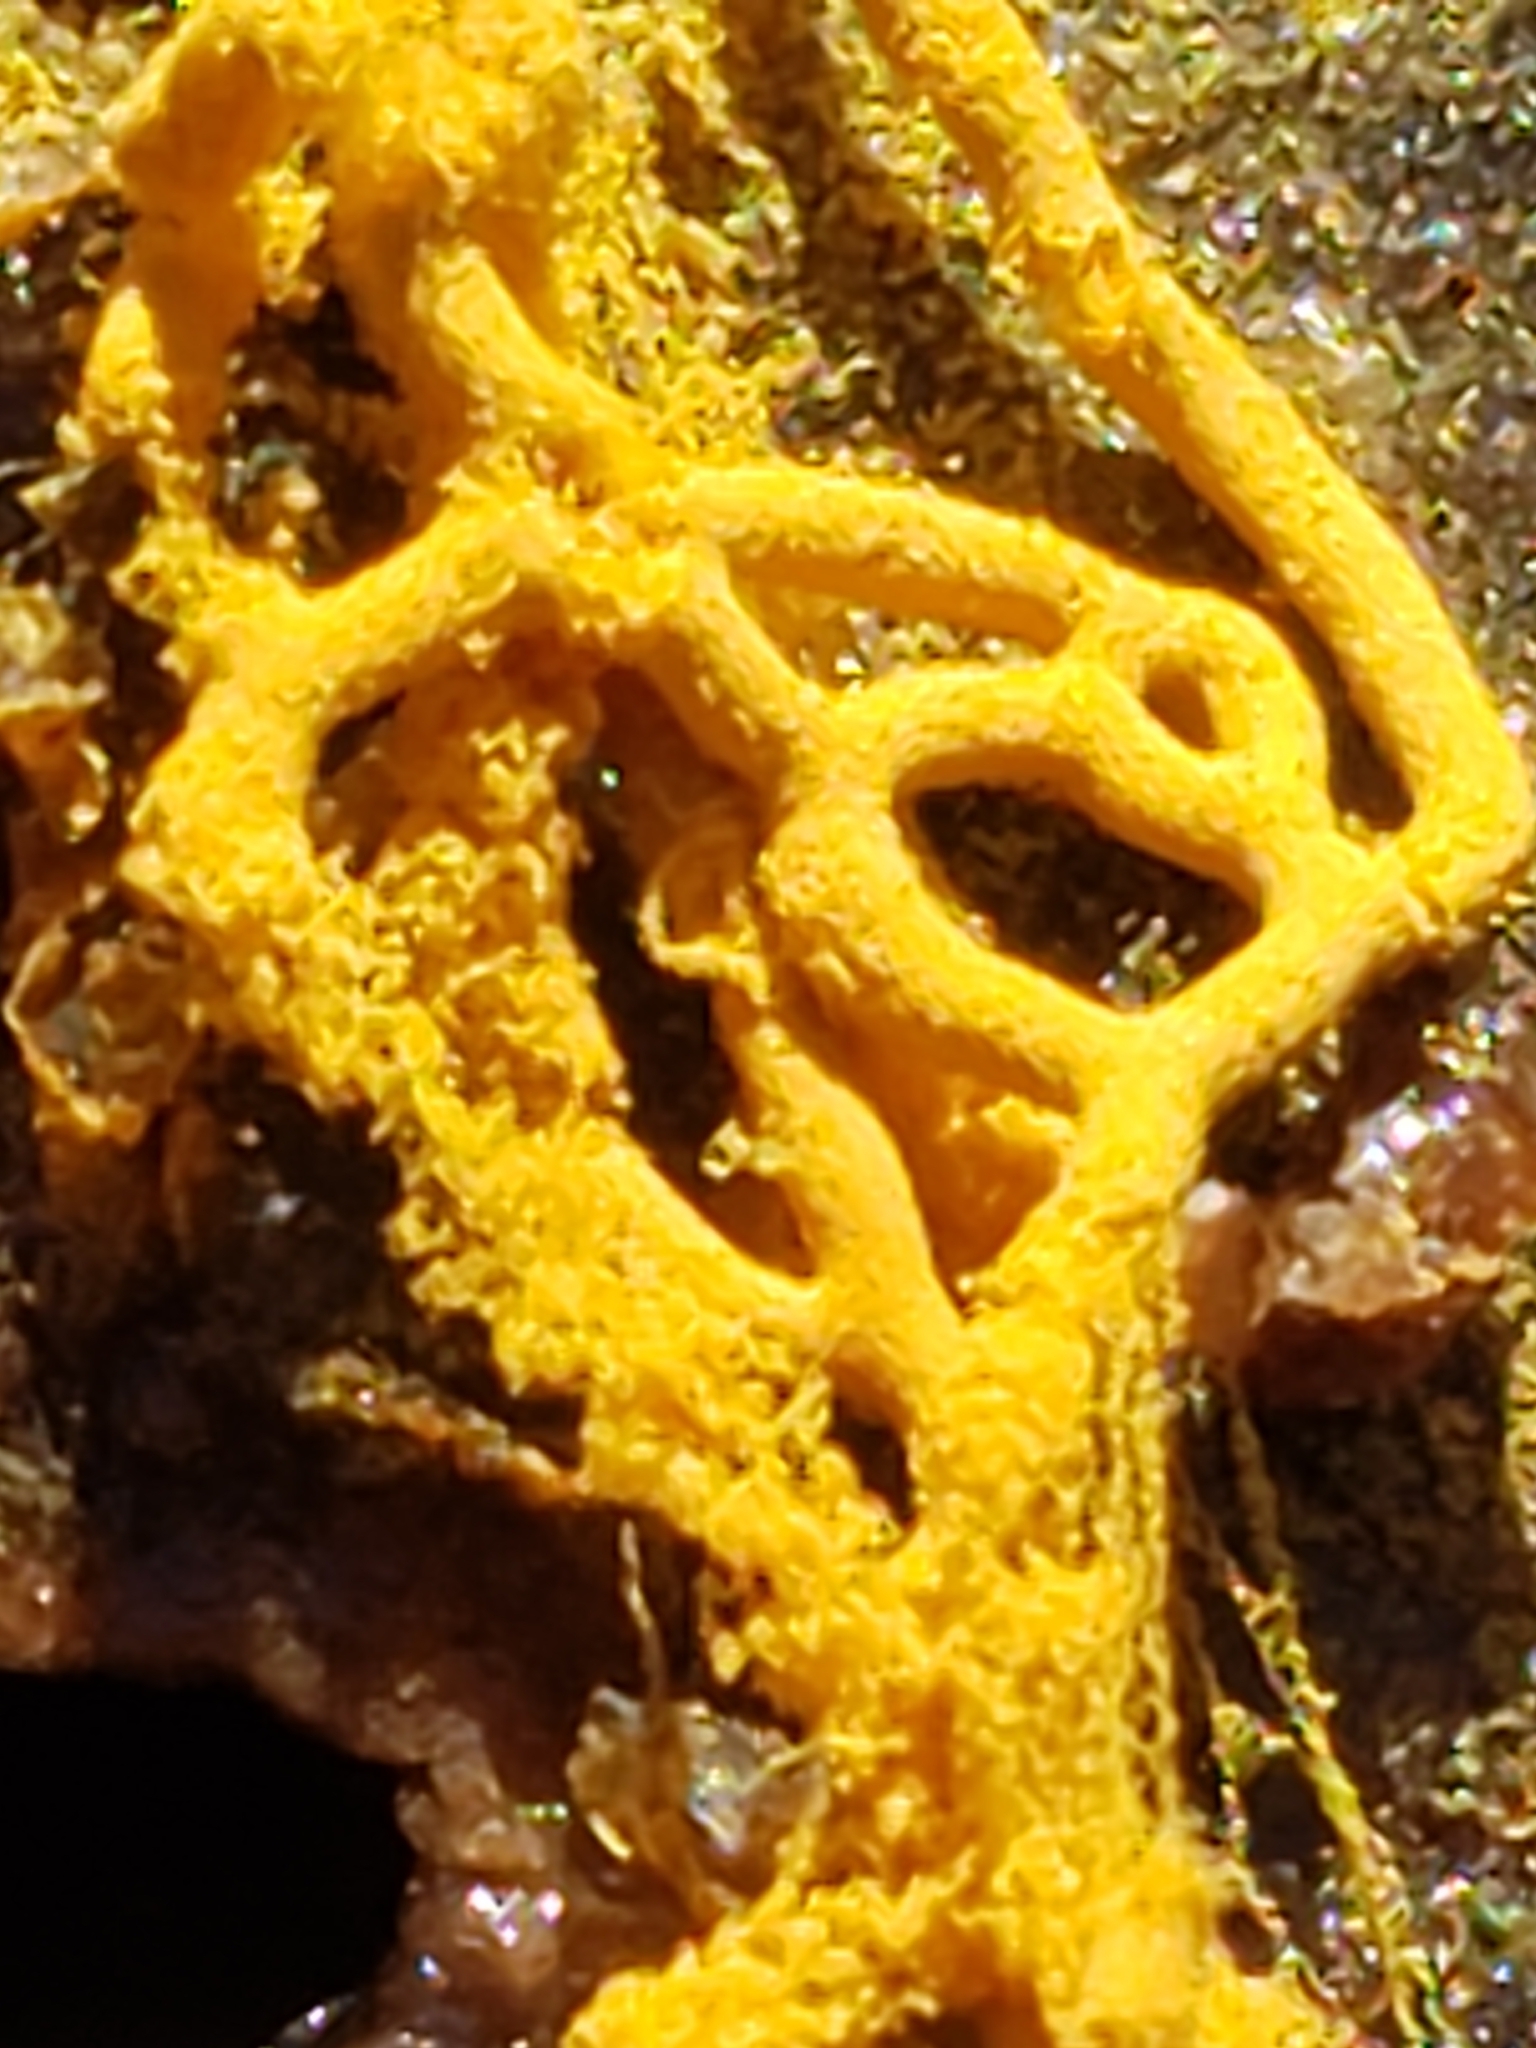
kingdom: Protozoa
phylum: Mycetozoa
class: Myxomycetes
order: Trichiales
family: Arcyriaceae
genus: Hemitrichia
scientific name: Hemitrichia serpula
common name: Pretzel slime mold
